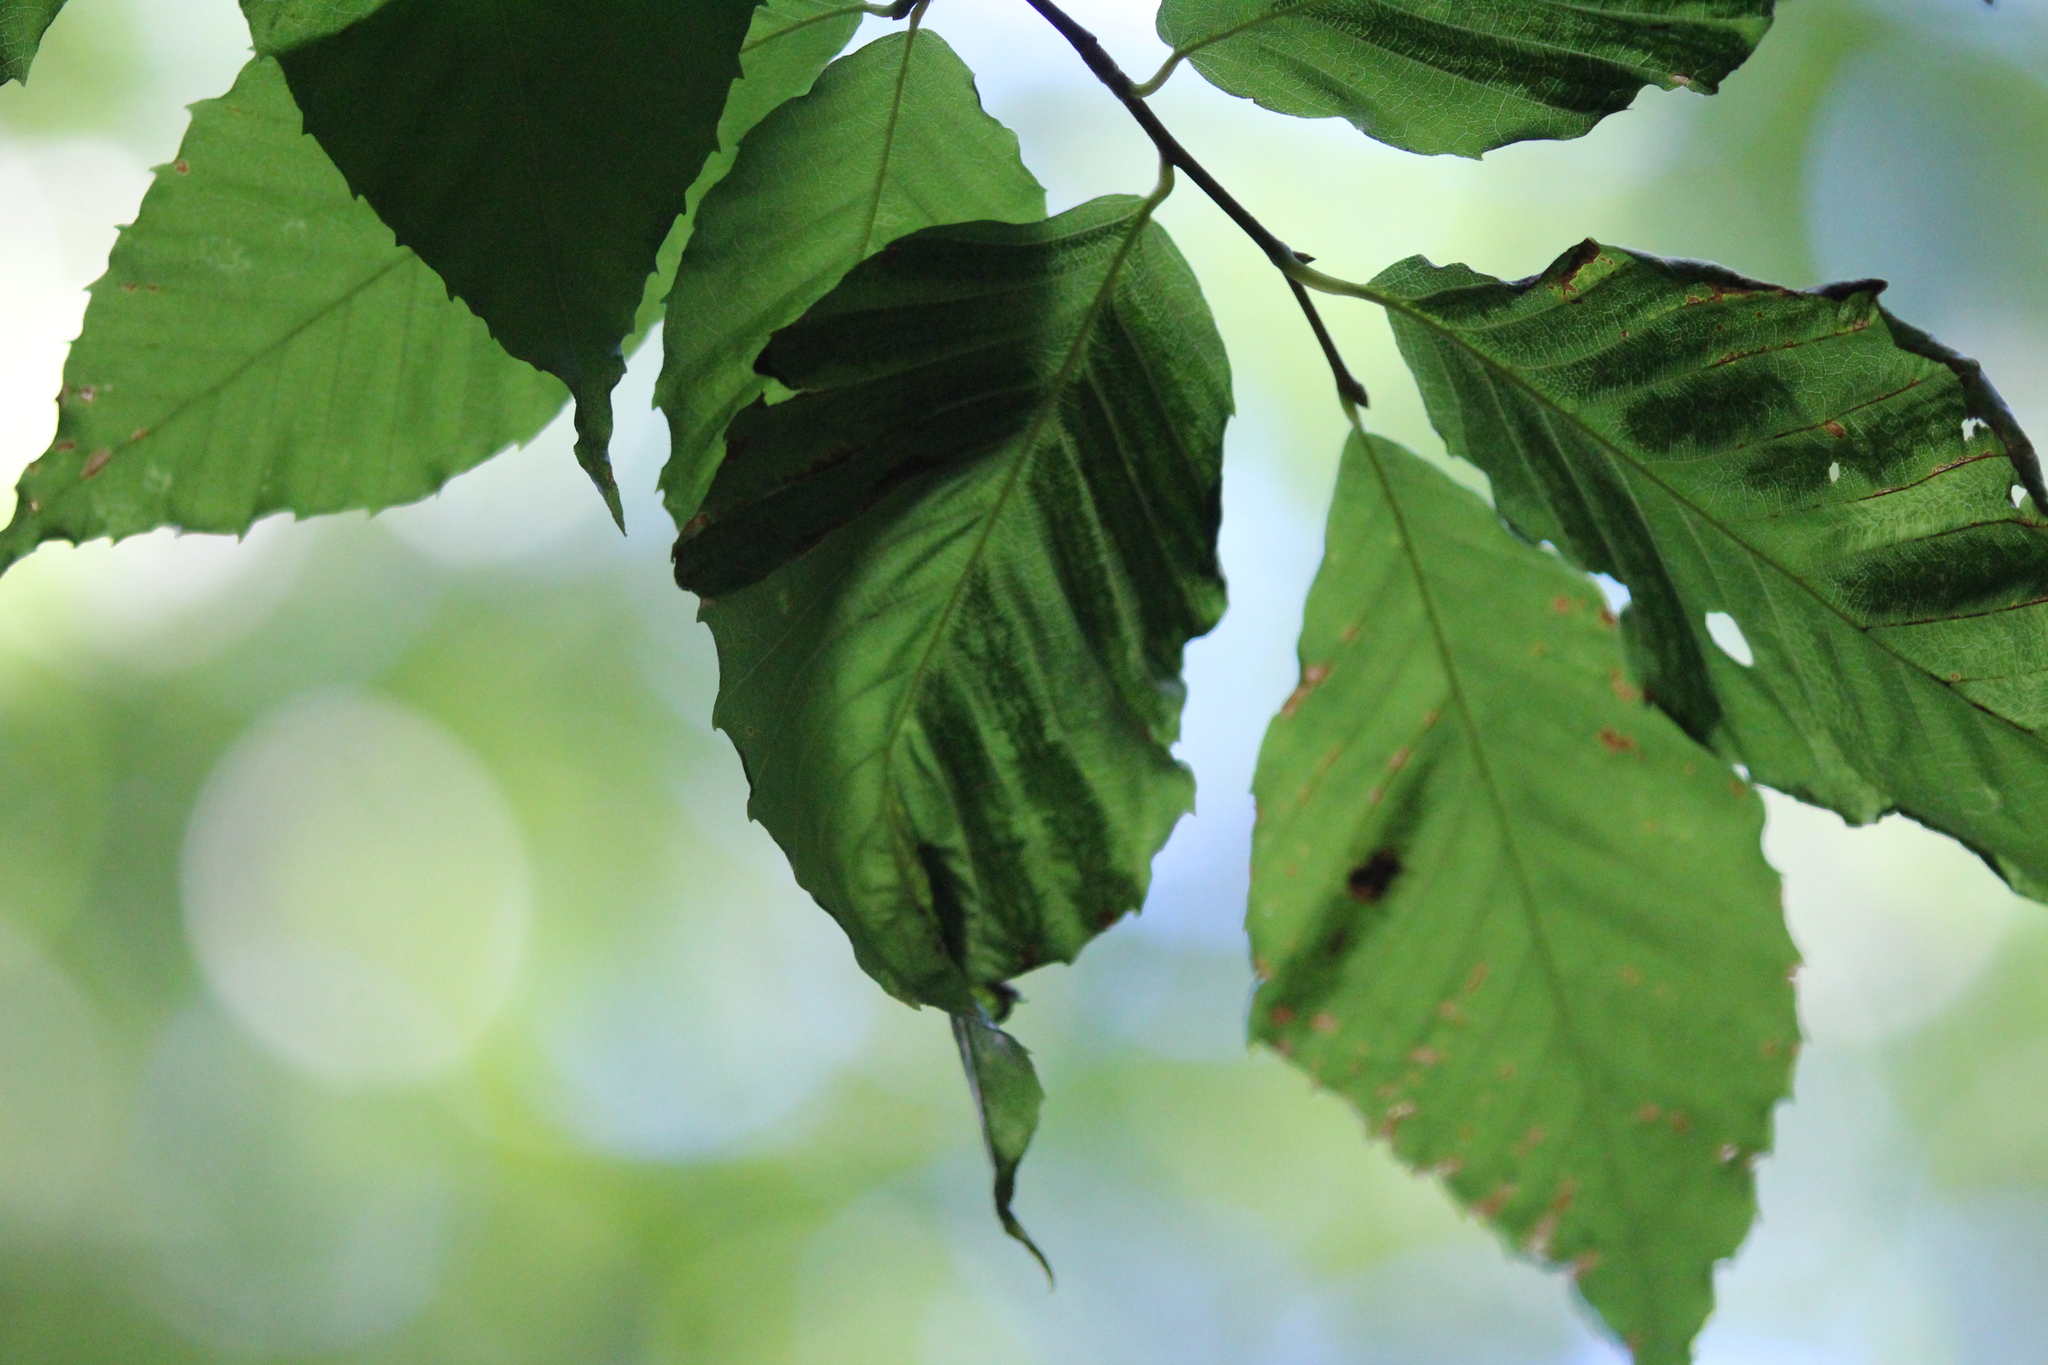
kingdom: Animalia
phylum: Nematoda
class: Chromadorea
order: Rhabditida
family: Anguinidae
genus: Litylenchus
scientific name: Litylenchus crenatae
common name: Beech leaf disease
